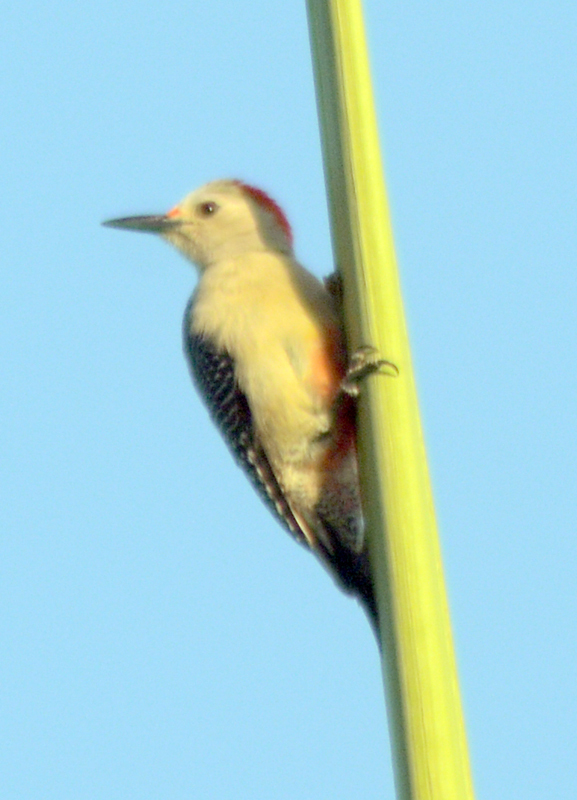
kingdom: Animalia
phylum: Chordata
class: Aves
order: Piciformes
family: Picidae
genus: Melanerpes
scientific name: Melanerpes aurifrons
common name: Golden-fronted woodpecker
